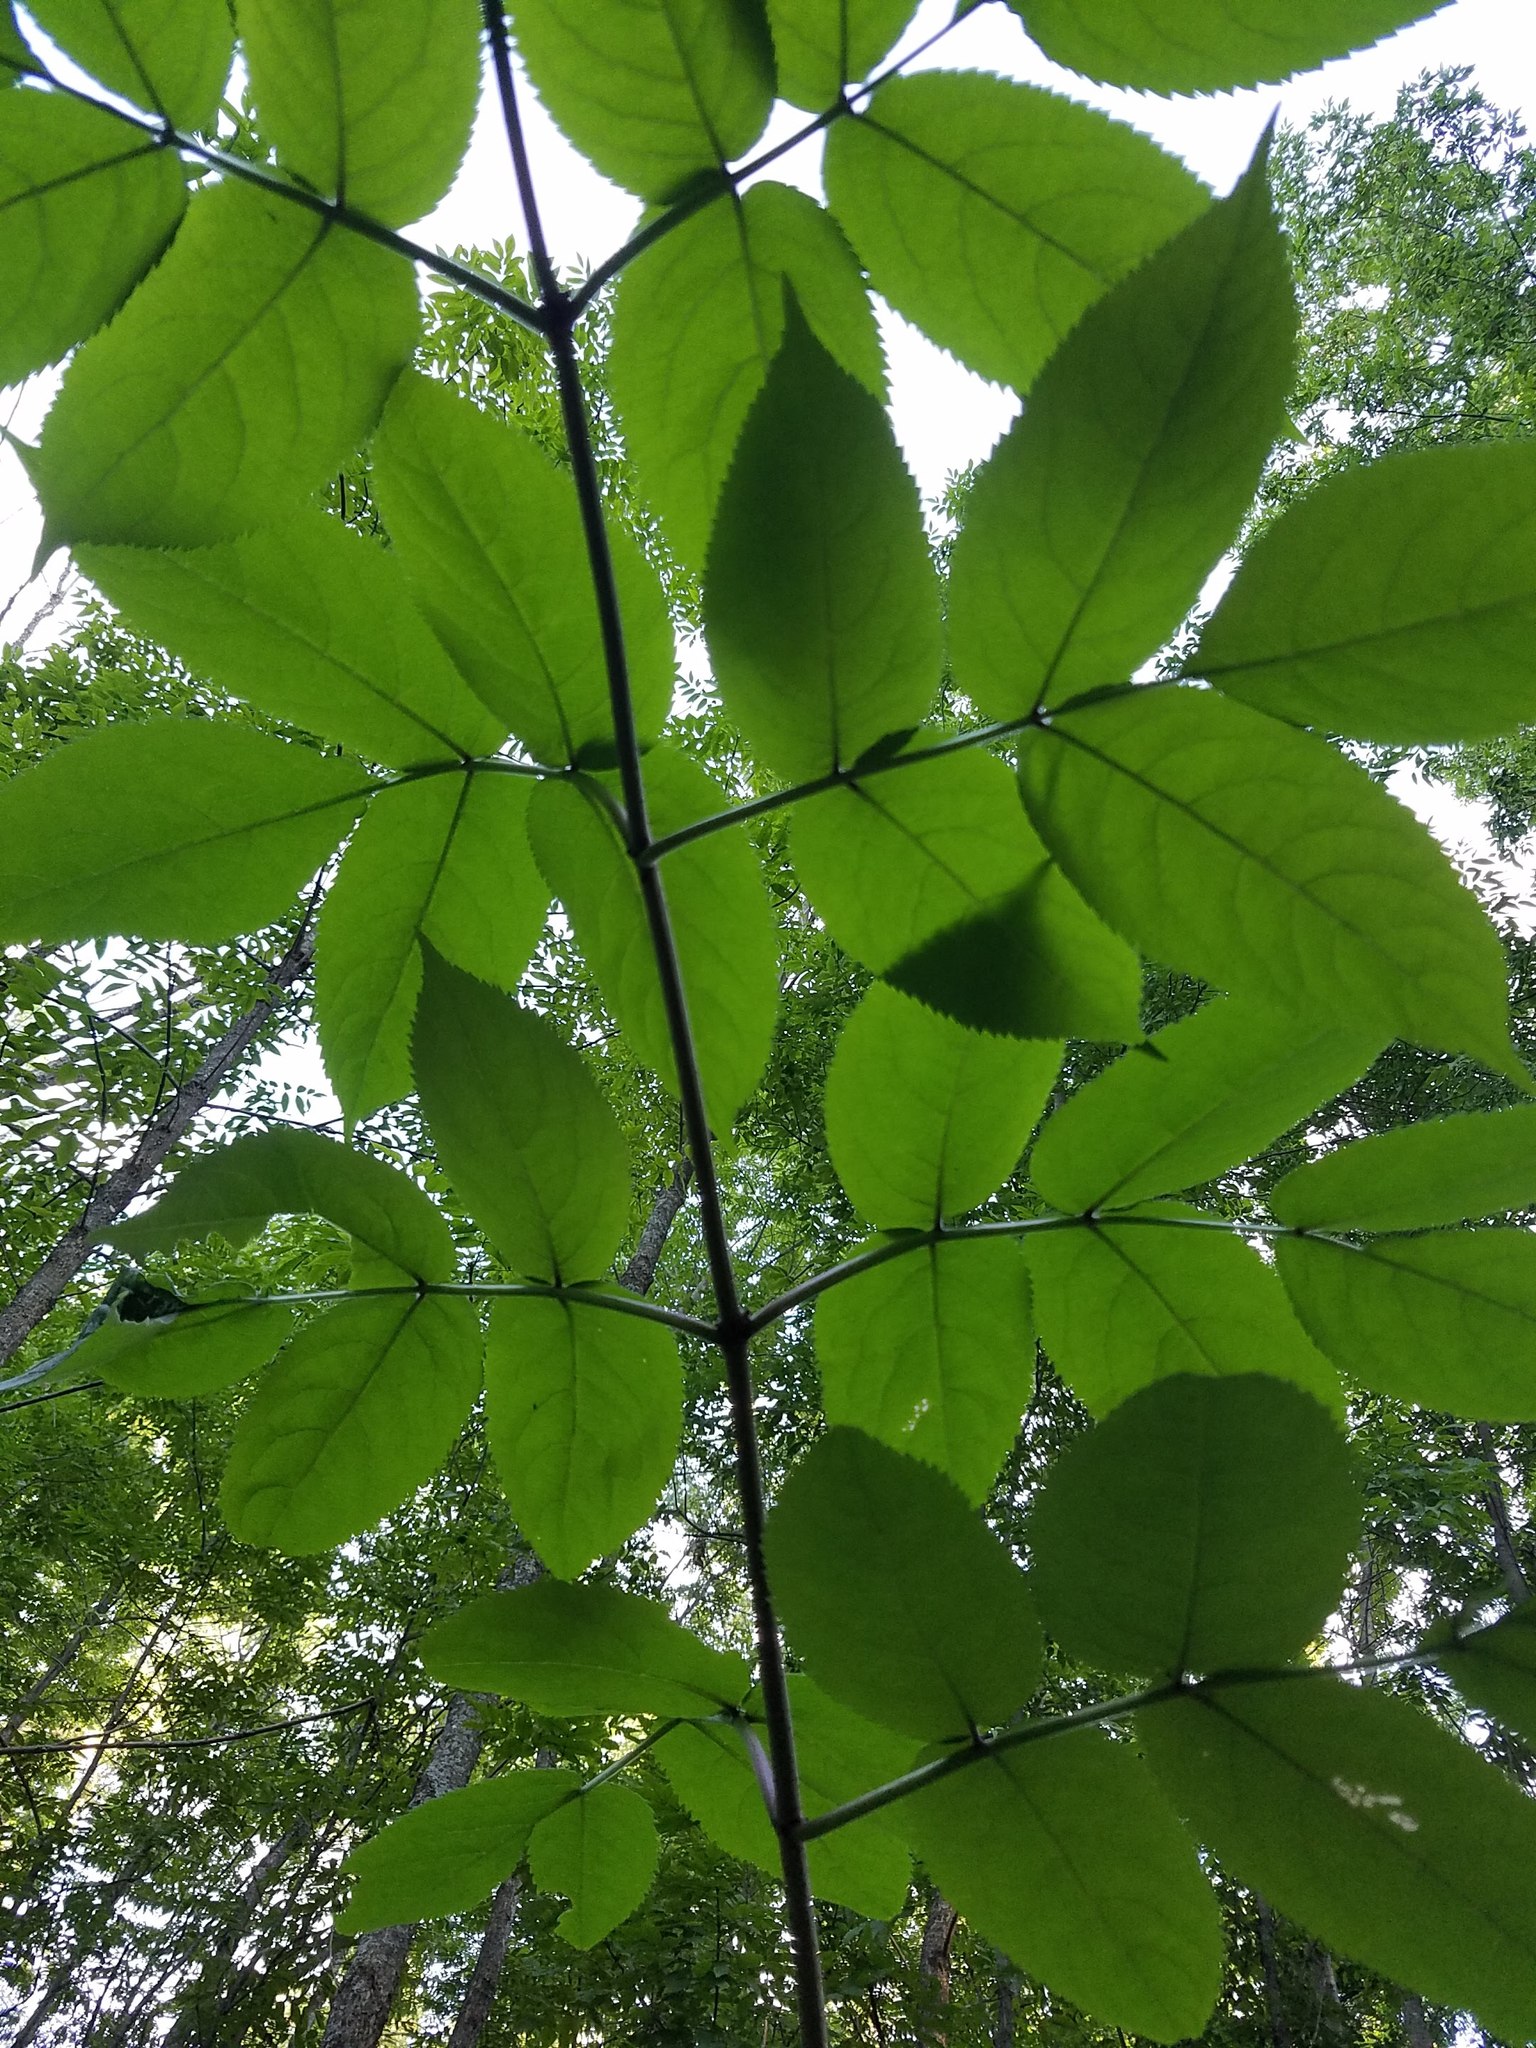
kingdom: Plantae
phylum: Tracheophyta
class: Magnoliopsida
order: Dipsacales
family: Viburnaceae
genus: Sambucus
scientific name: Sambucus
